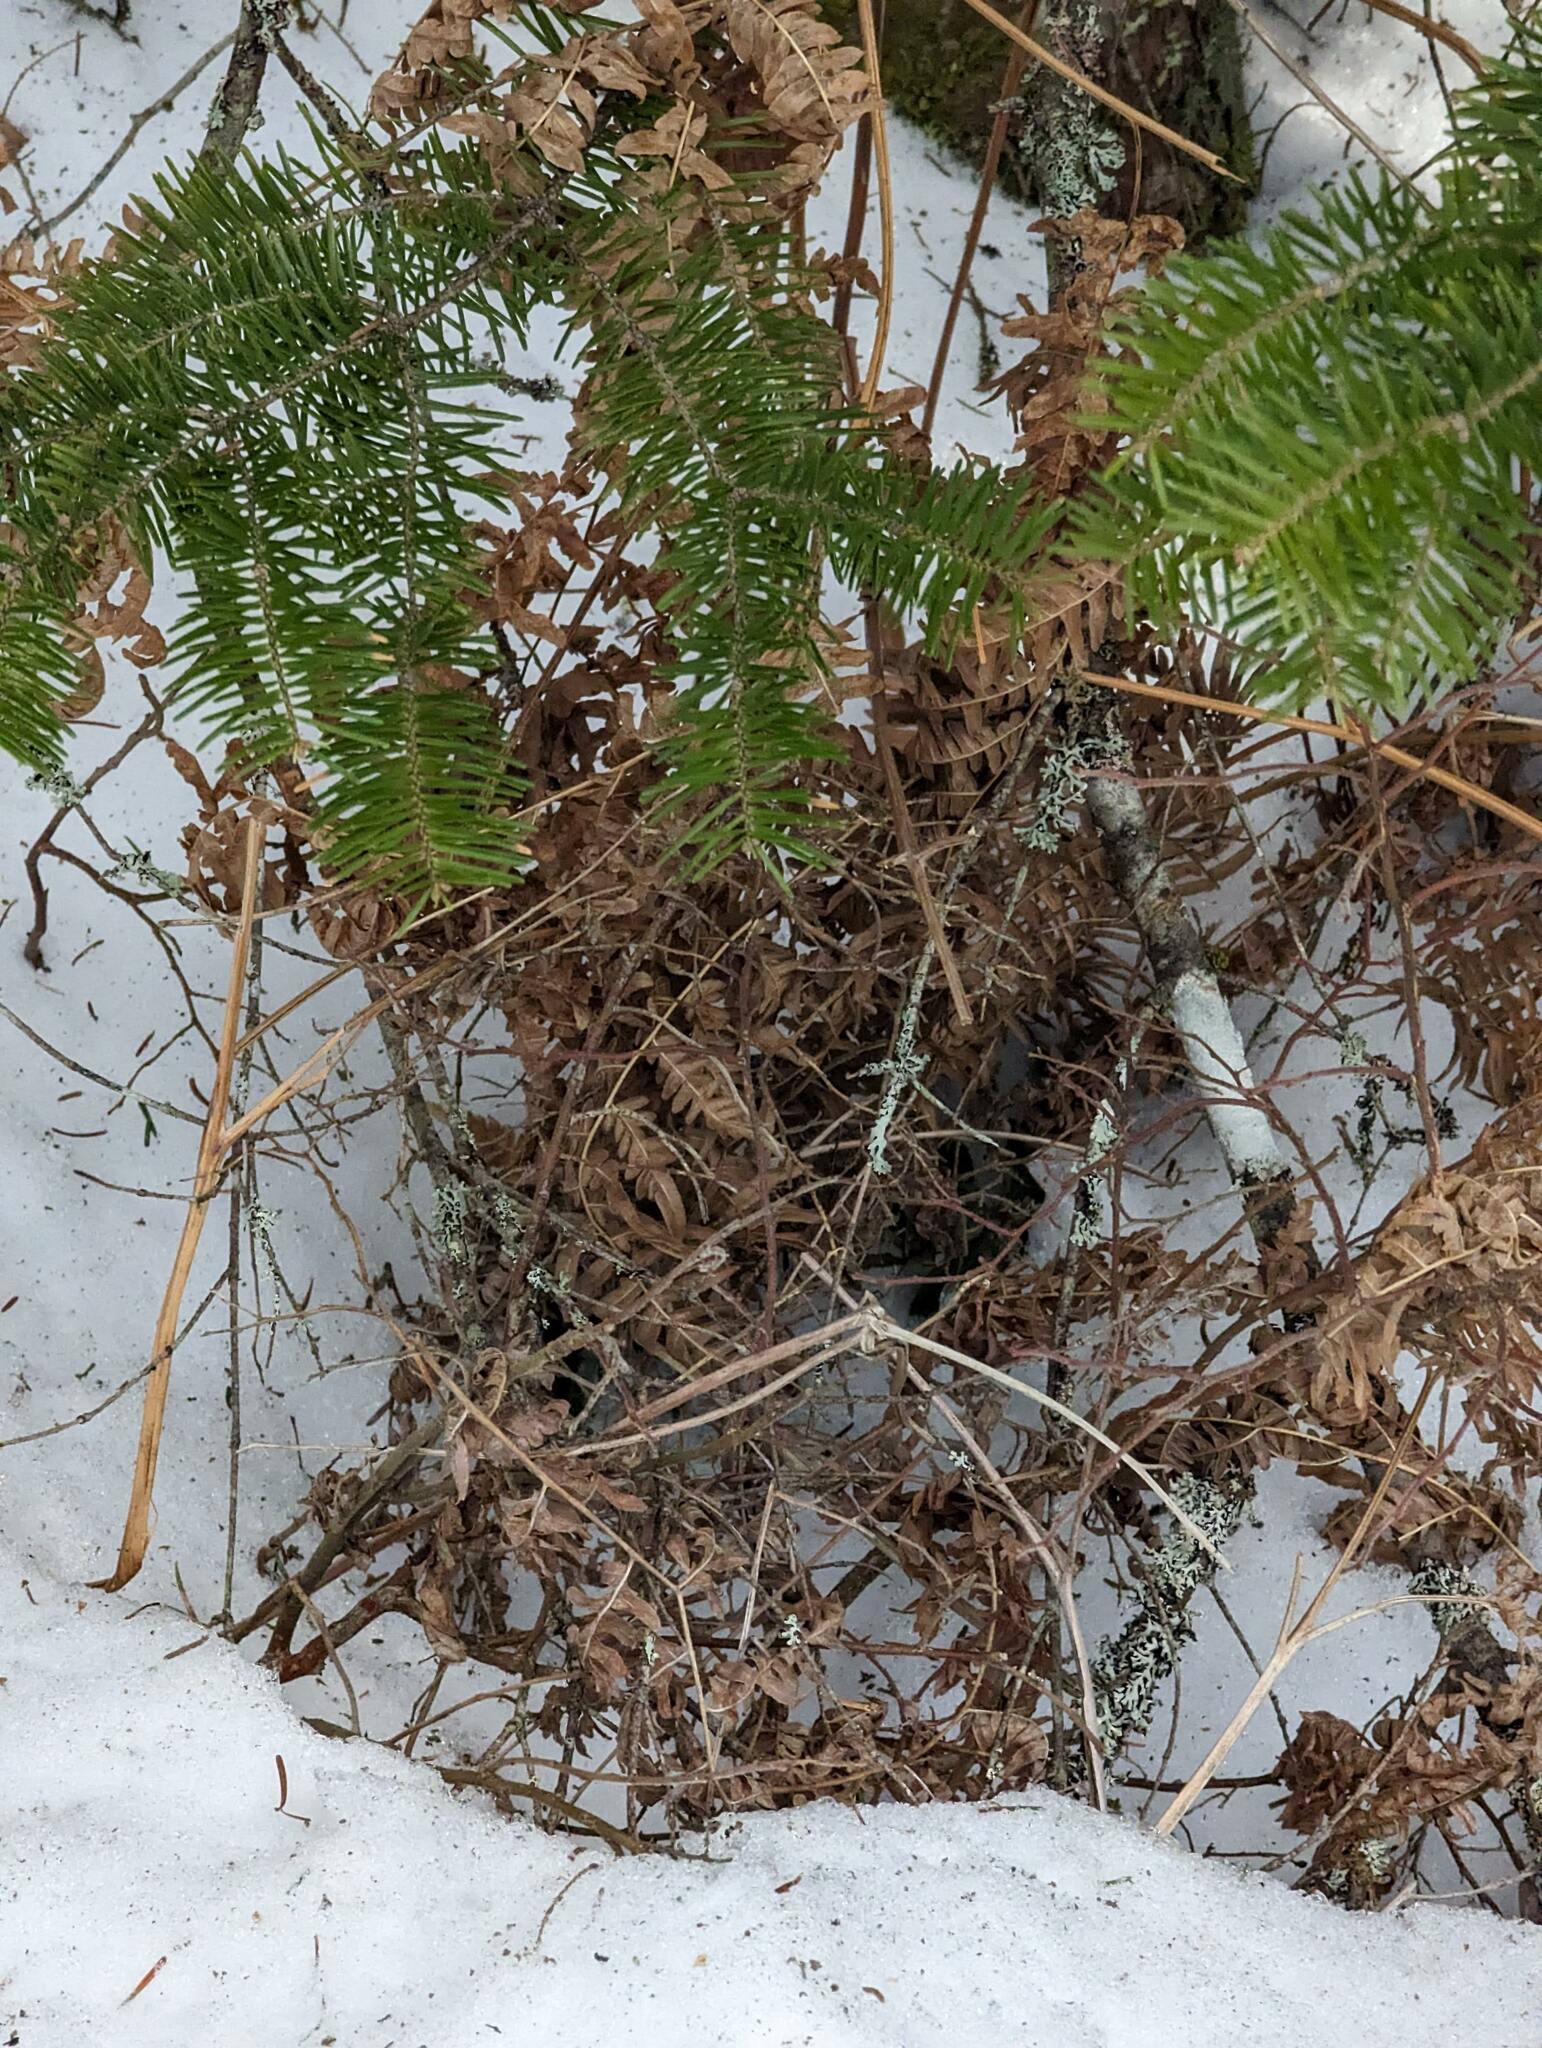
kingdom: Plantae
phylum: Tracheophyta
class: Polypodiopsida
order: Polypodiales
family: Dennstaedtiaceae
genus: Pteridium
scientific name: Pteridium aquilinum
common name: Bracken
